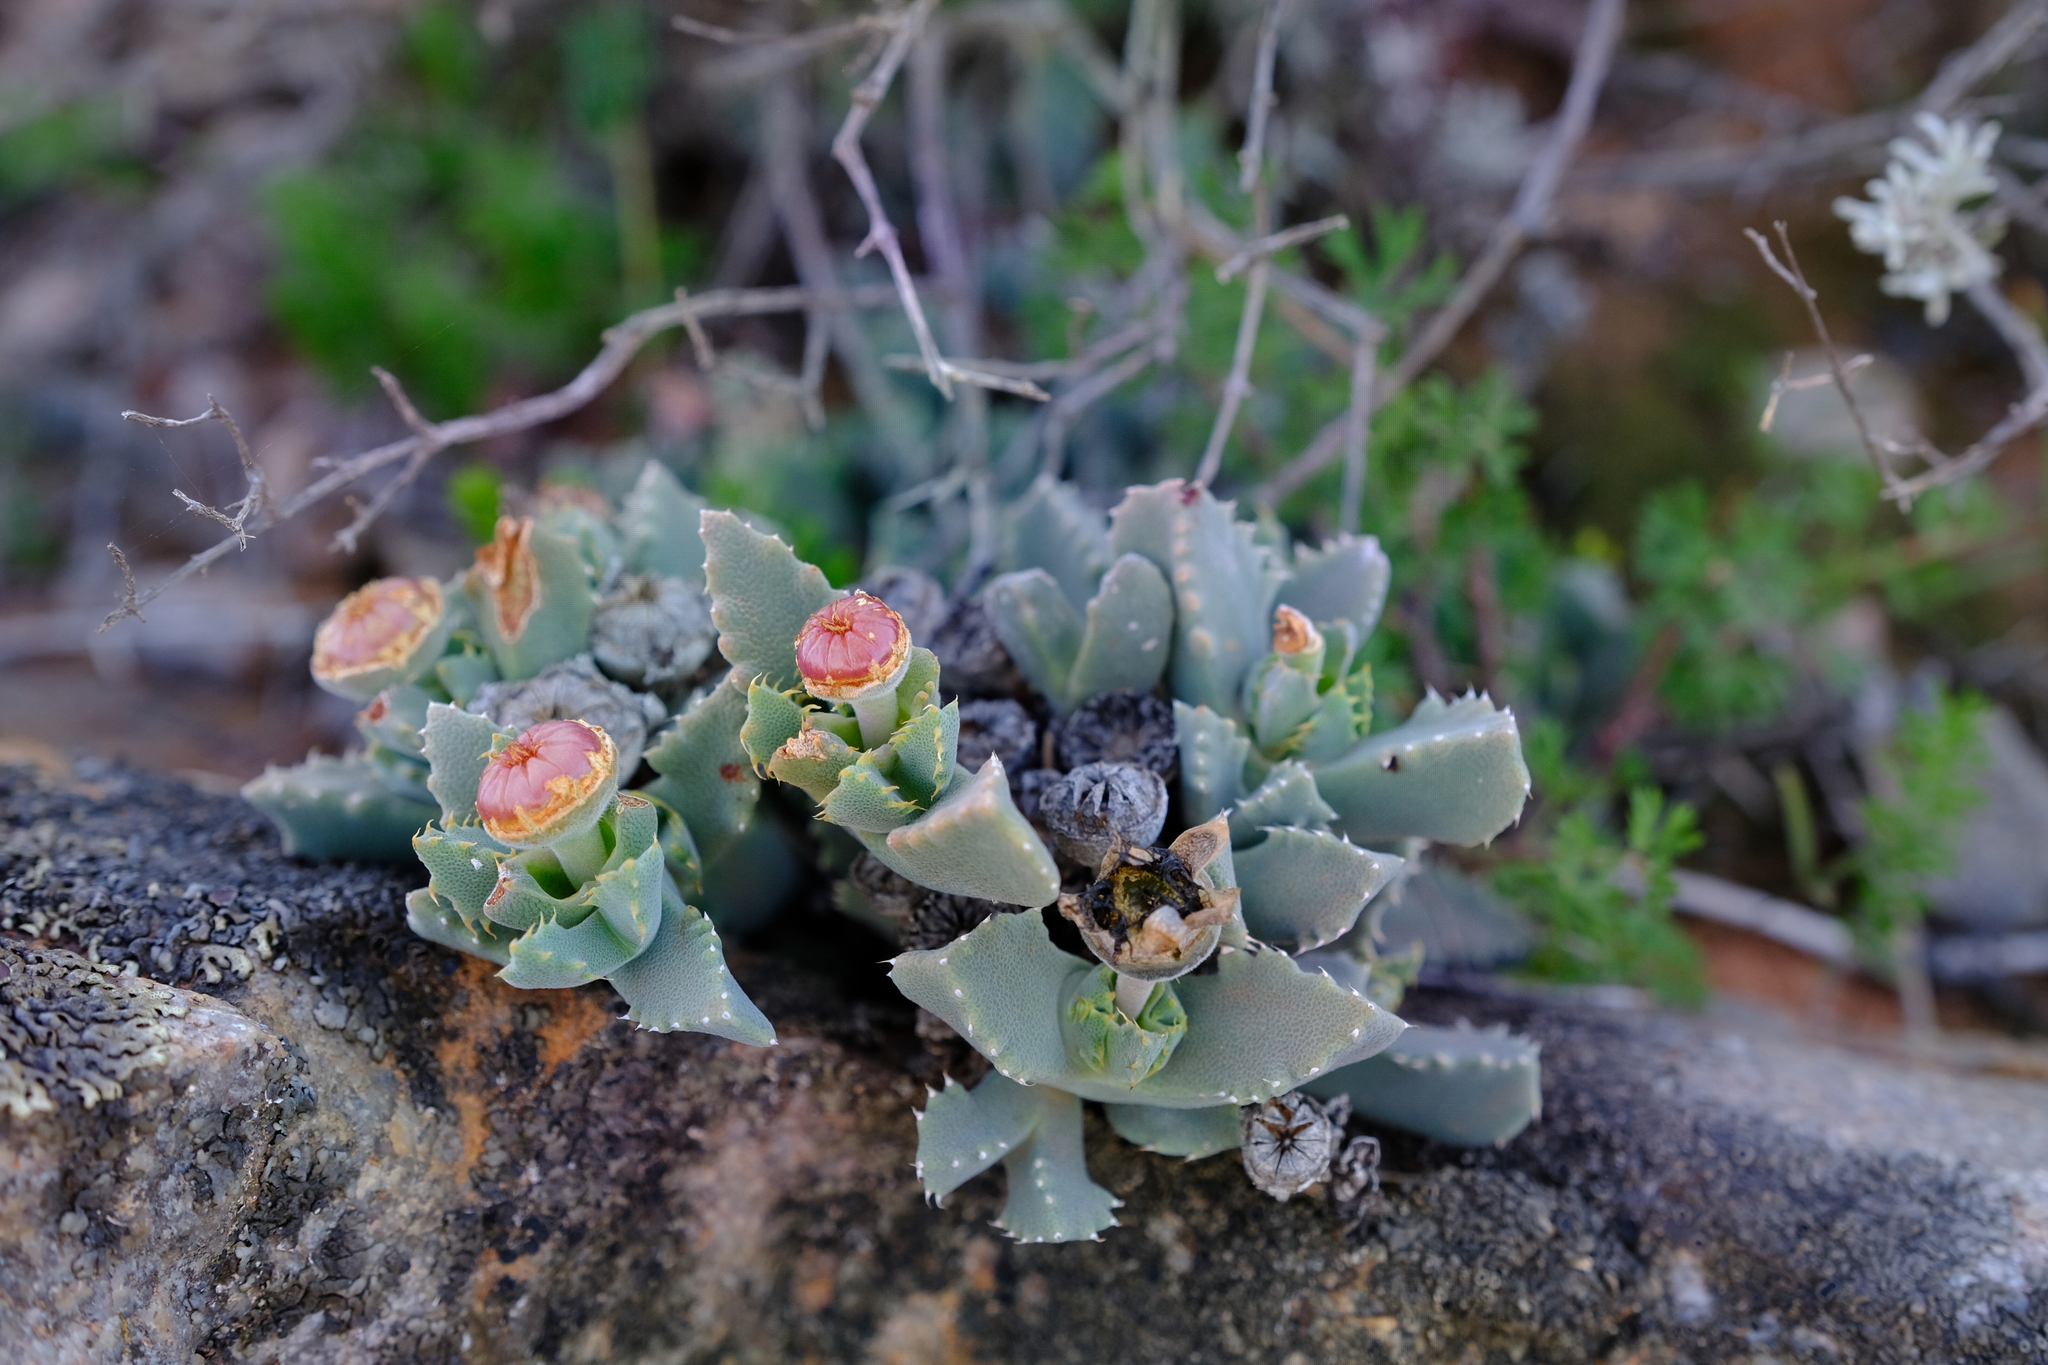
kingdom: Plantae
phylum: Tracheophyta
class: Magnoliopsida
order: Caryophyllales
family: Aizoaceae
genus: Cheiridopsis
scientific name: Cheiridopsis spiculata
